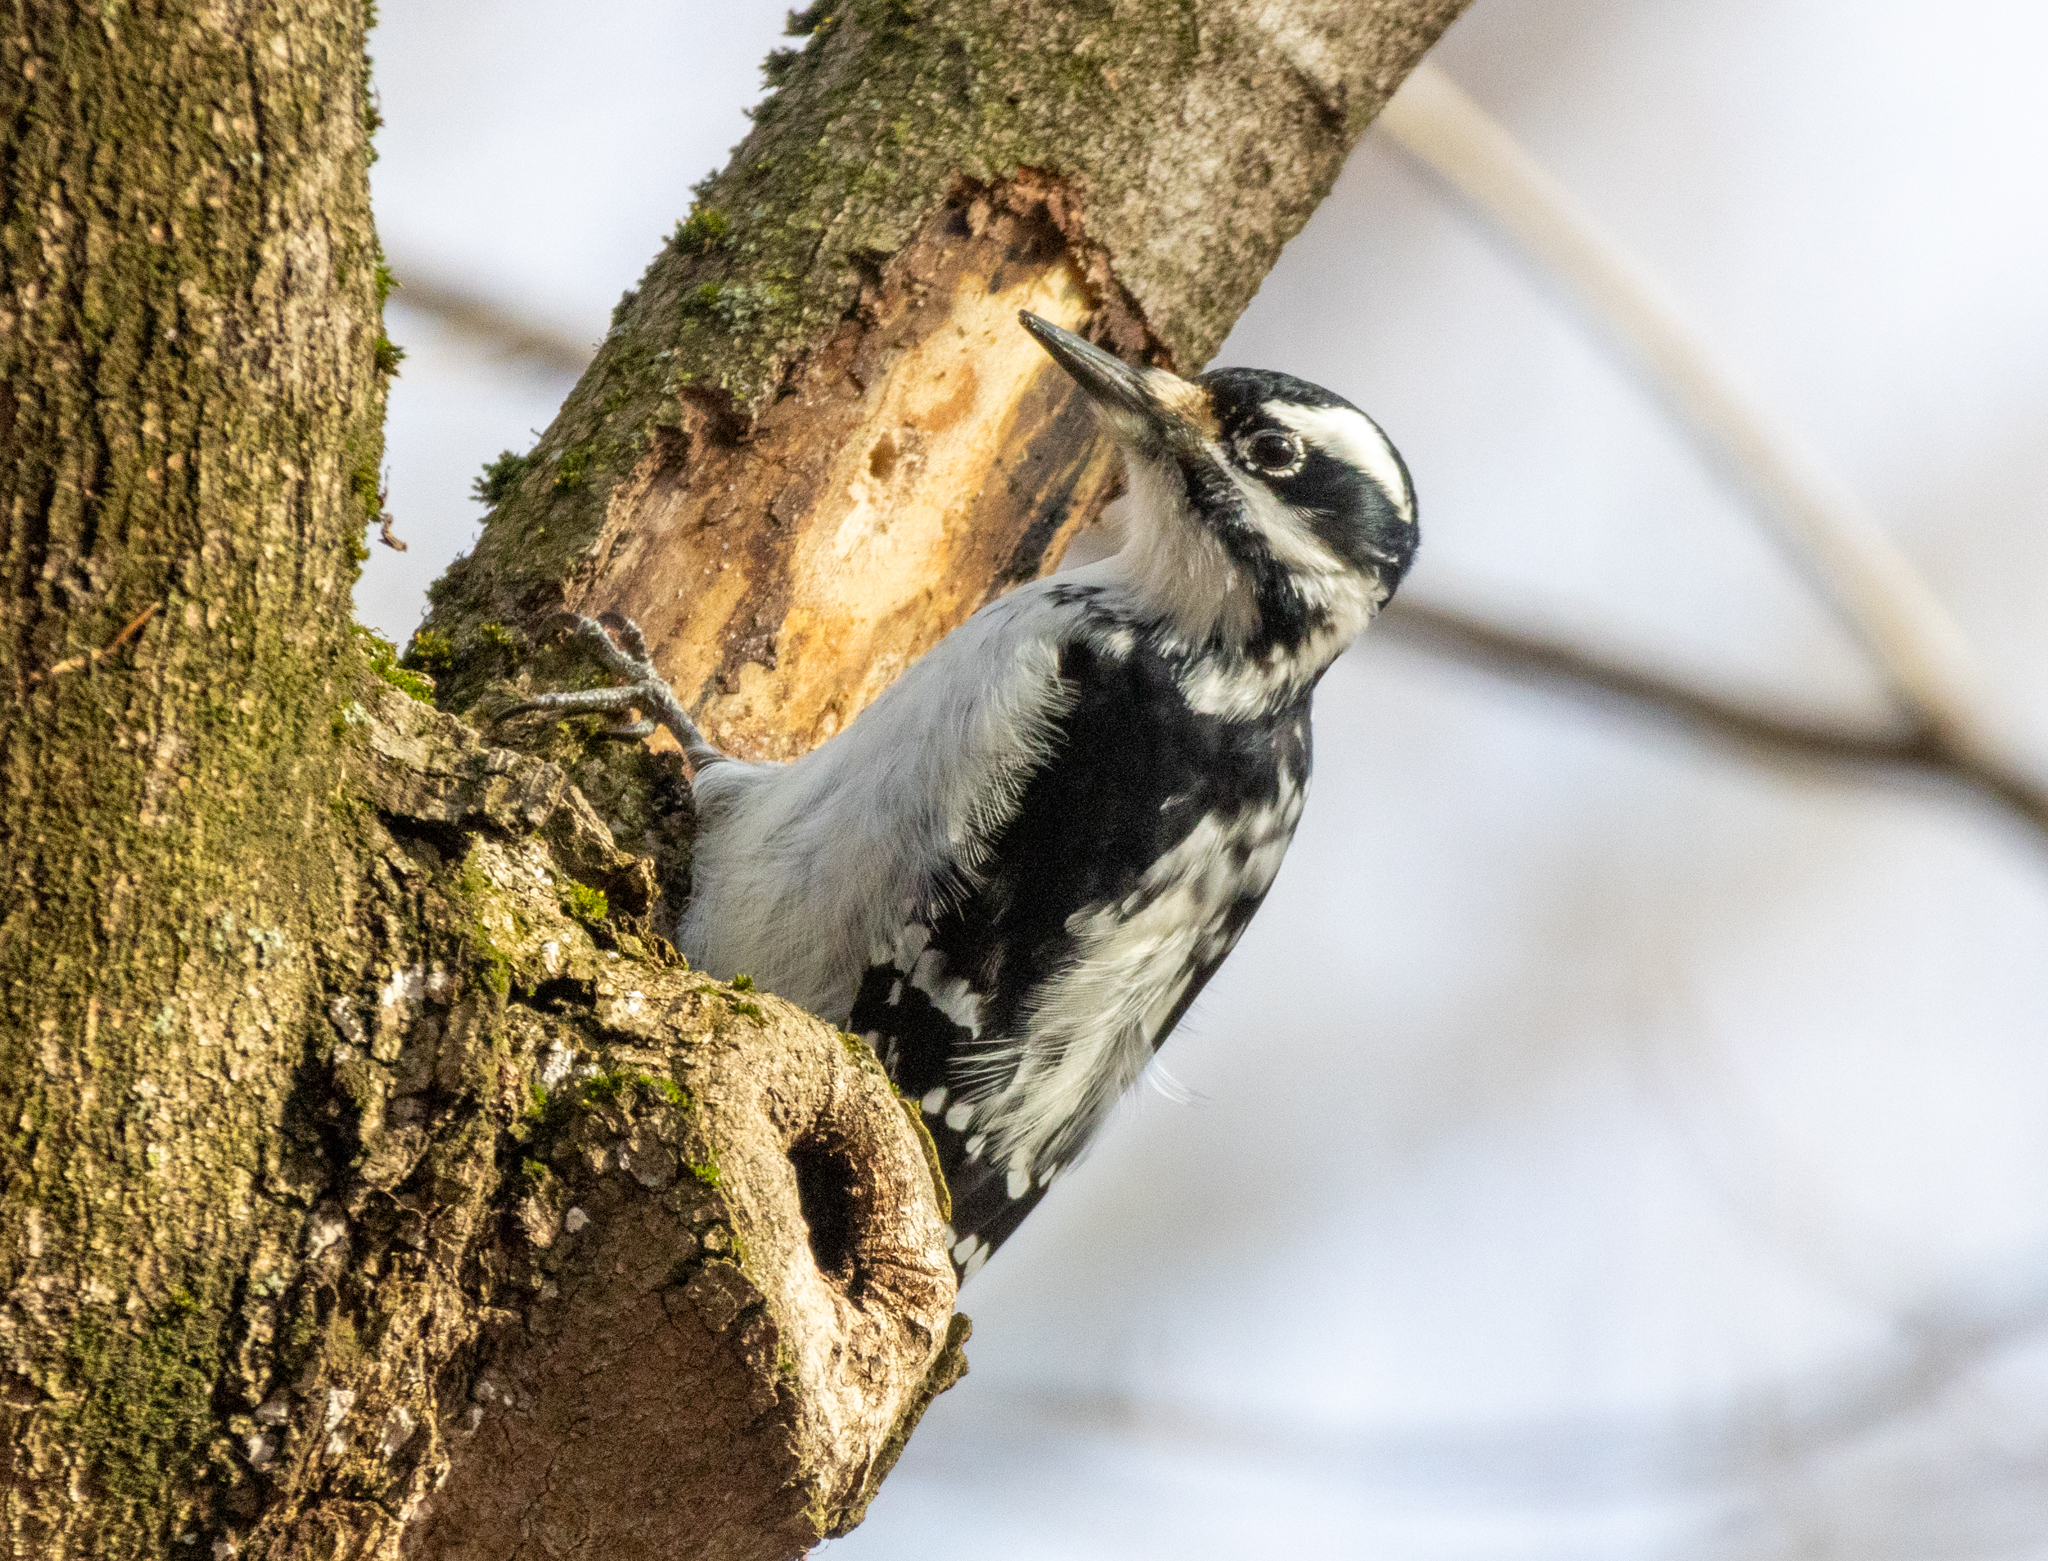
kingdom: Animalia
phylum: Chordata
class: Aves
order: Piciformes
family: Picidae
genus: Leuconotopicus
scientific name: Leuconotopicus villosus
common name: Hairy woodpecker
